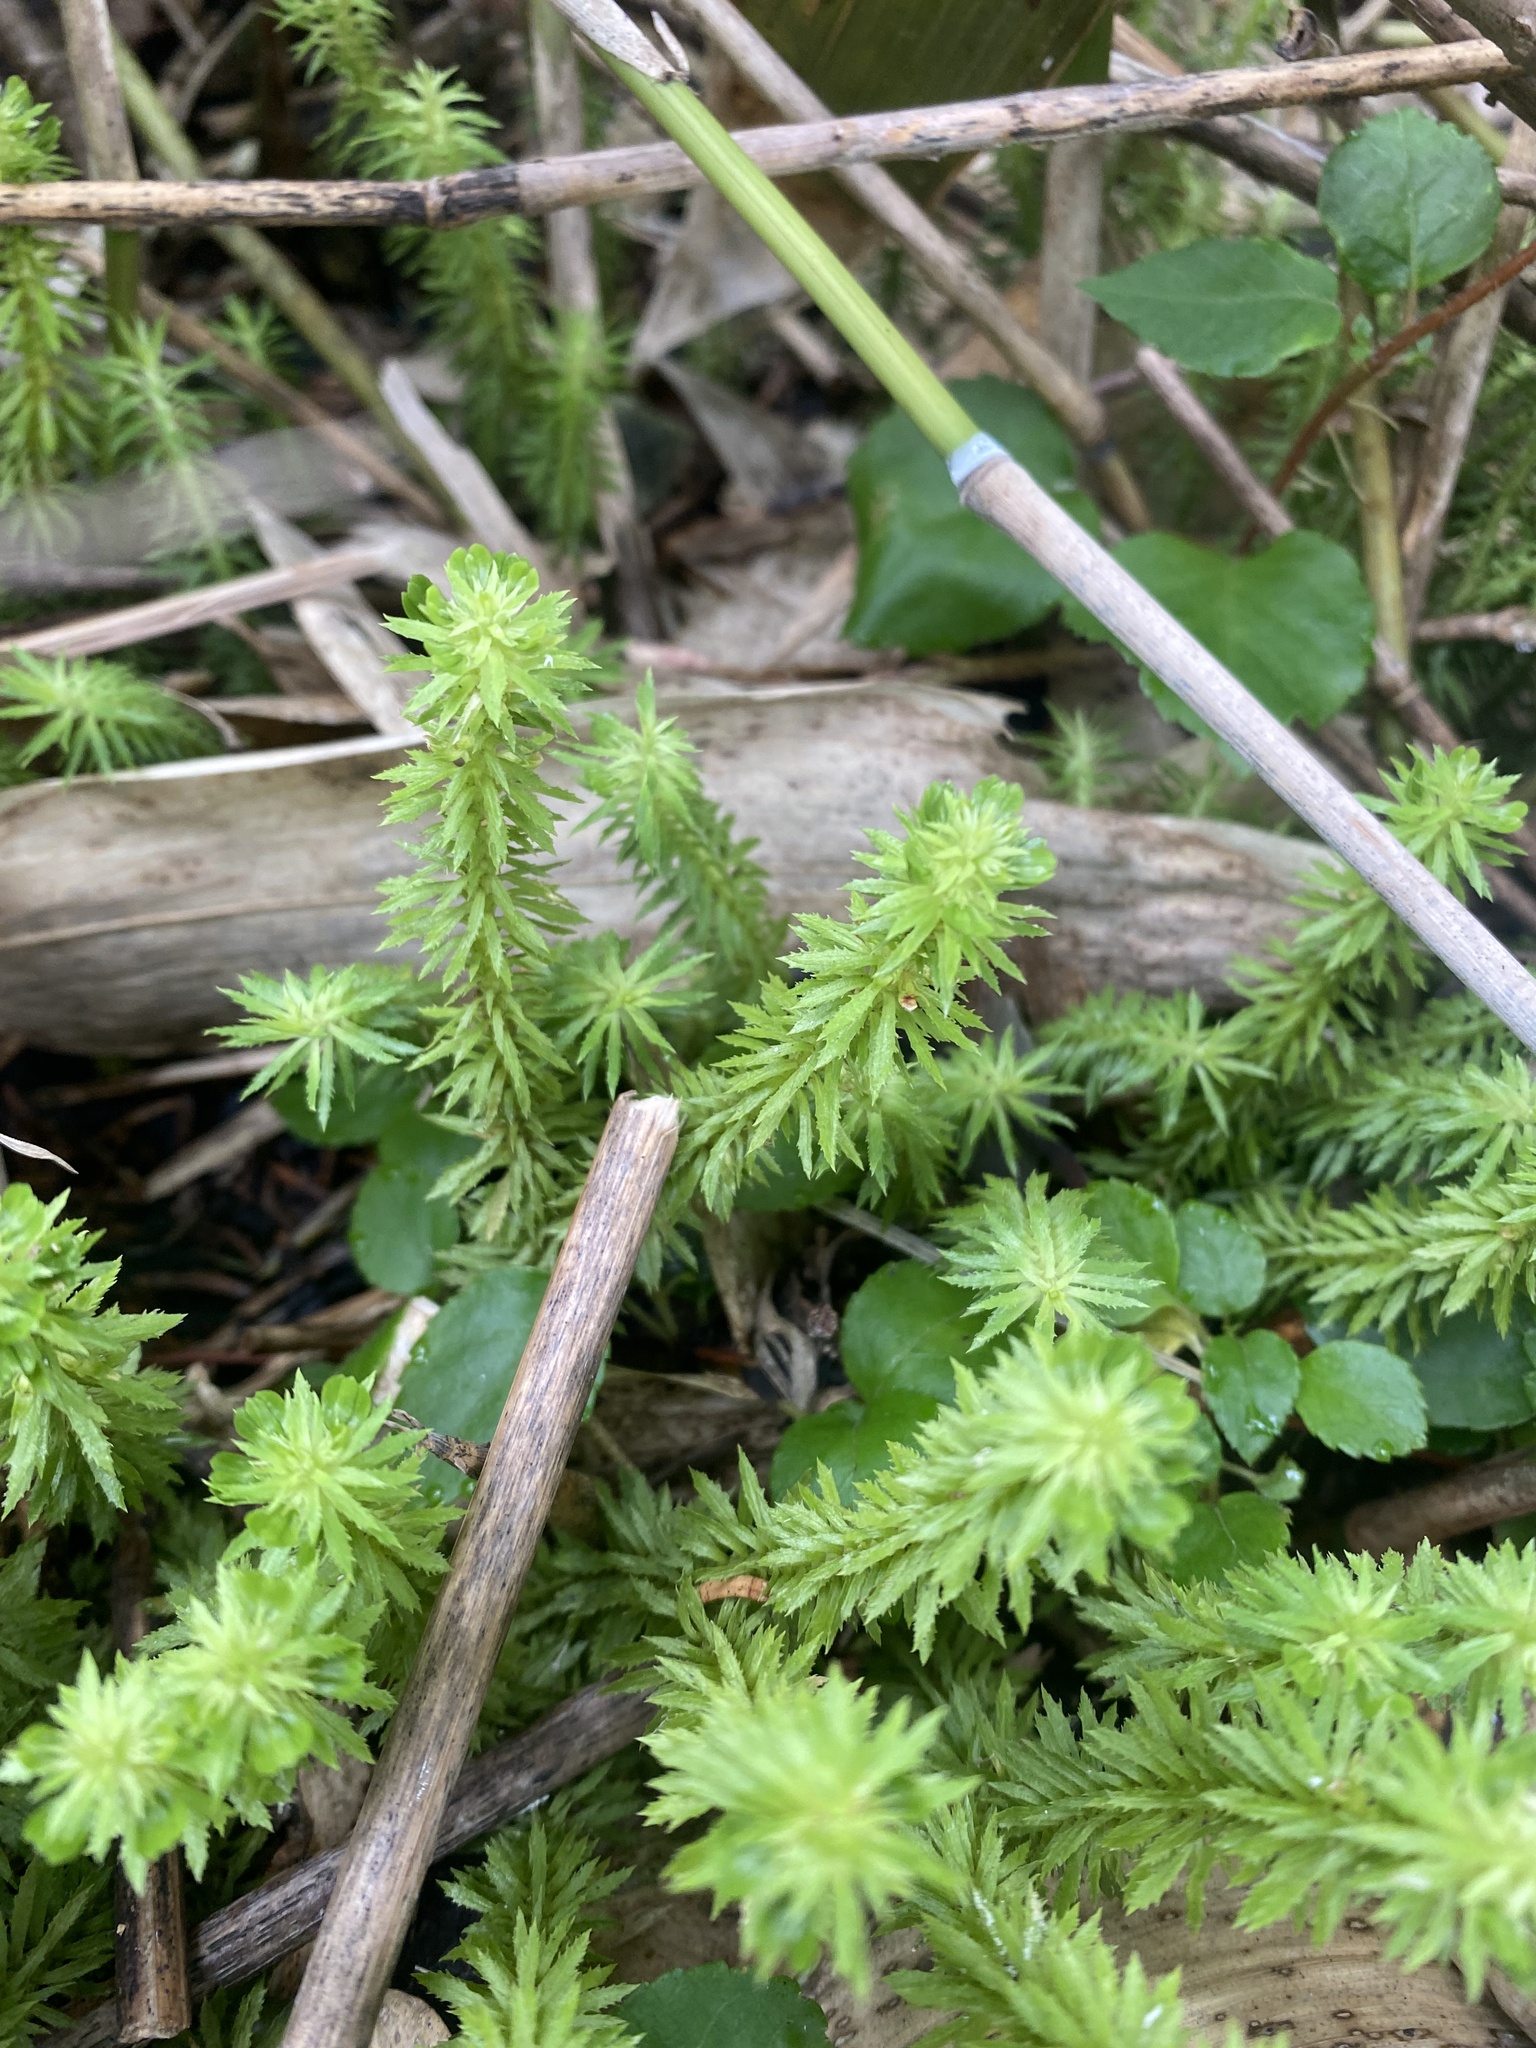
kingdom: Plantae
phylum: Tracheophyta
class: Lycopodiopsida
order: Lycopodiales
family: Lycopodiaceae
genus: Huperzia
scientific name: Huperzia serrata
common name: Toothed club-moss
